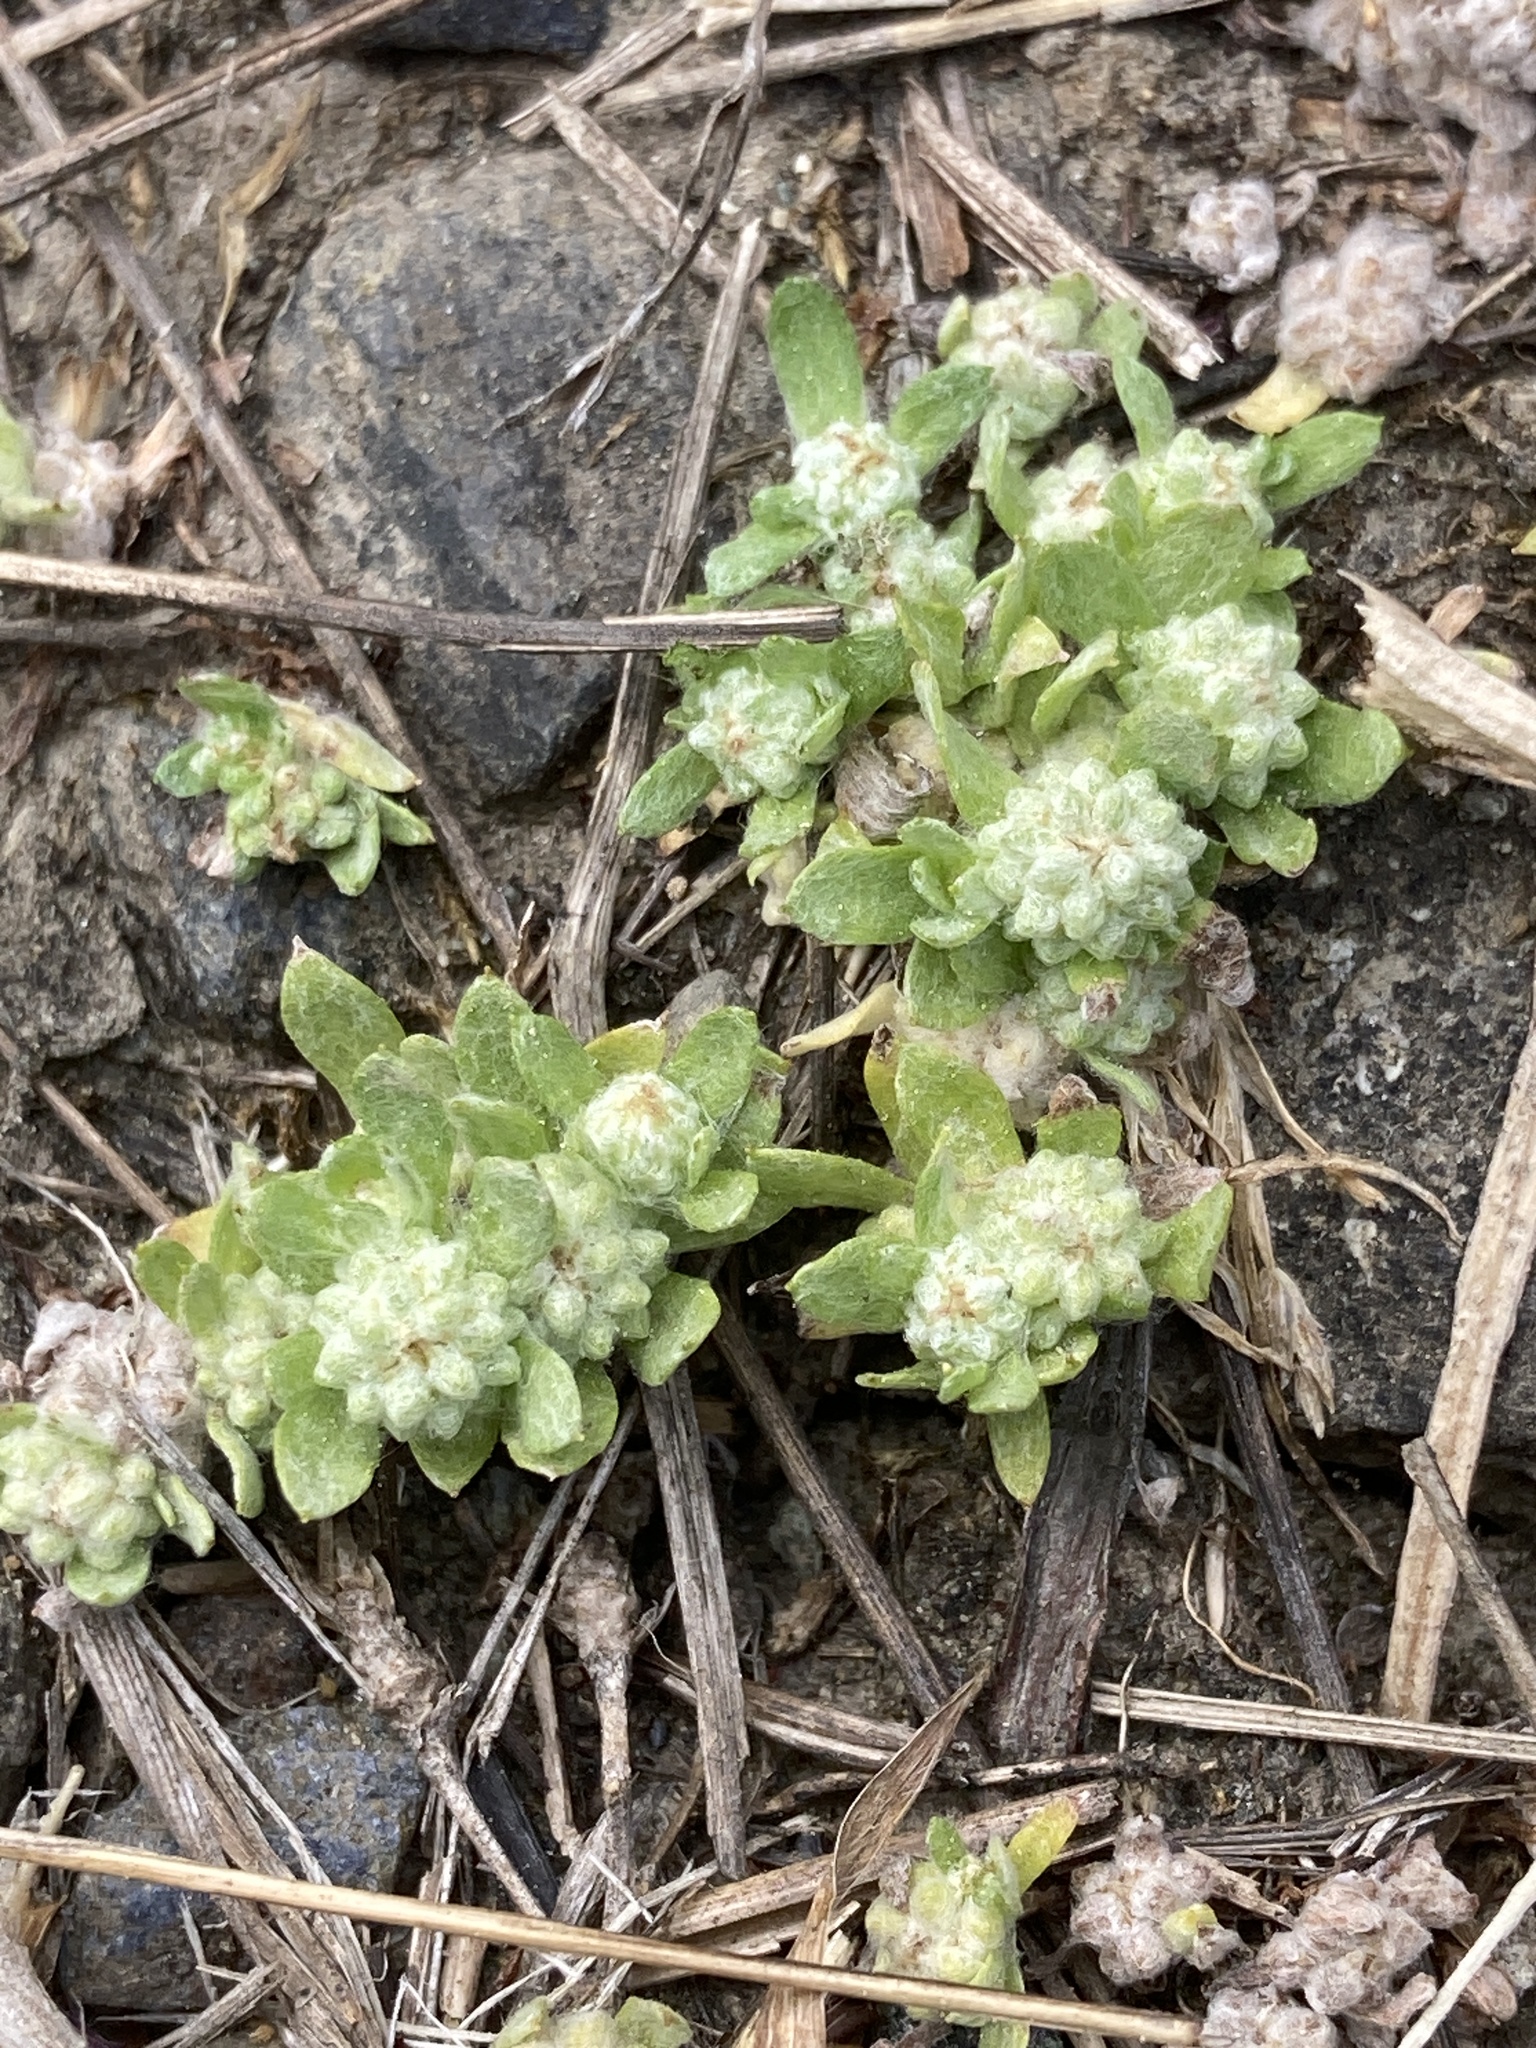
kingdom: Plantae
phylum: Tracheophyta
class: Magnoliopsida
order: Asterales
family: Asteraceae
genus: Psilocarphus
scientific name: Psilocarphus tenellus
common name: Slender woolly-marbles
